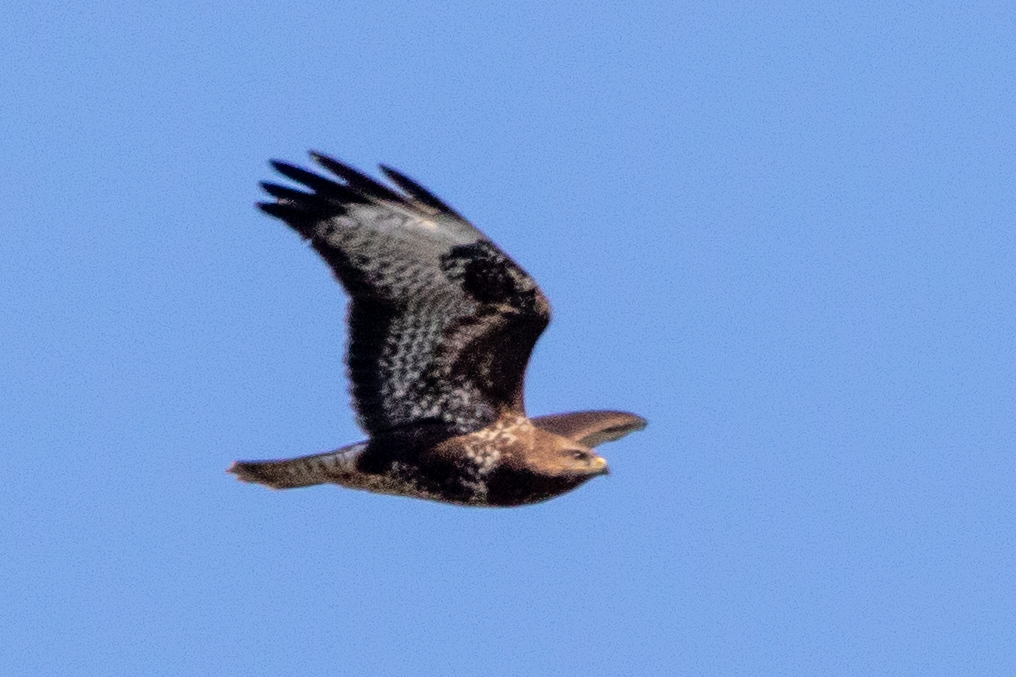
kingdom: Animalia
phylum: Chordata
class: Aves
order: Accipitriformes
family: Accipitridae
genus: Buteo
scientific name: Buteo buteo
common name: Common buzzard
